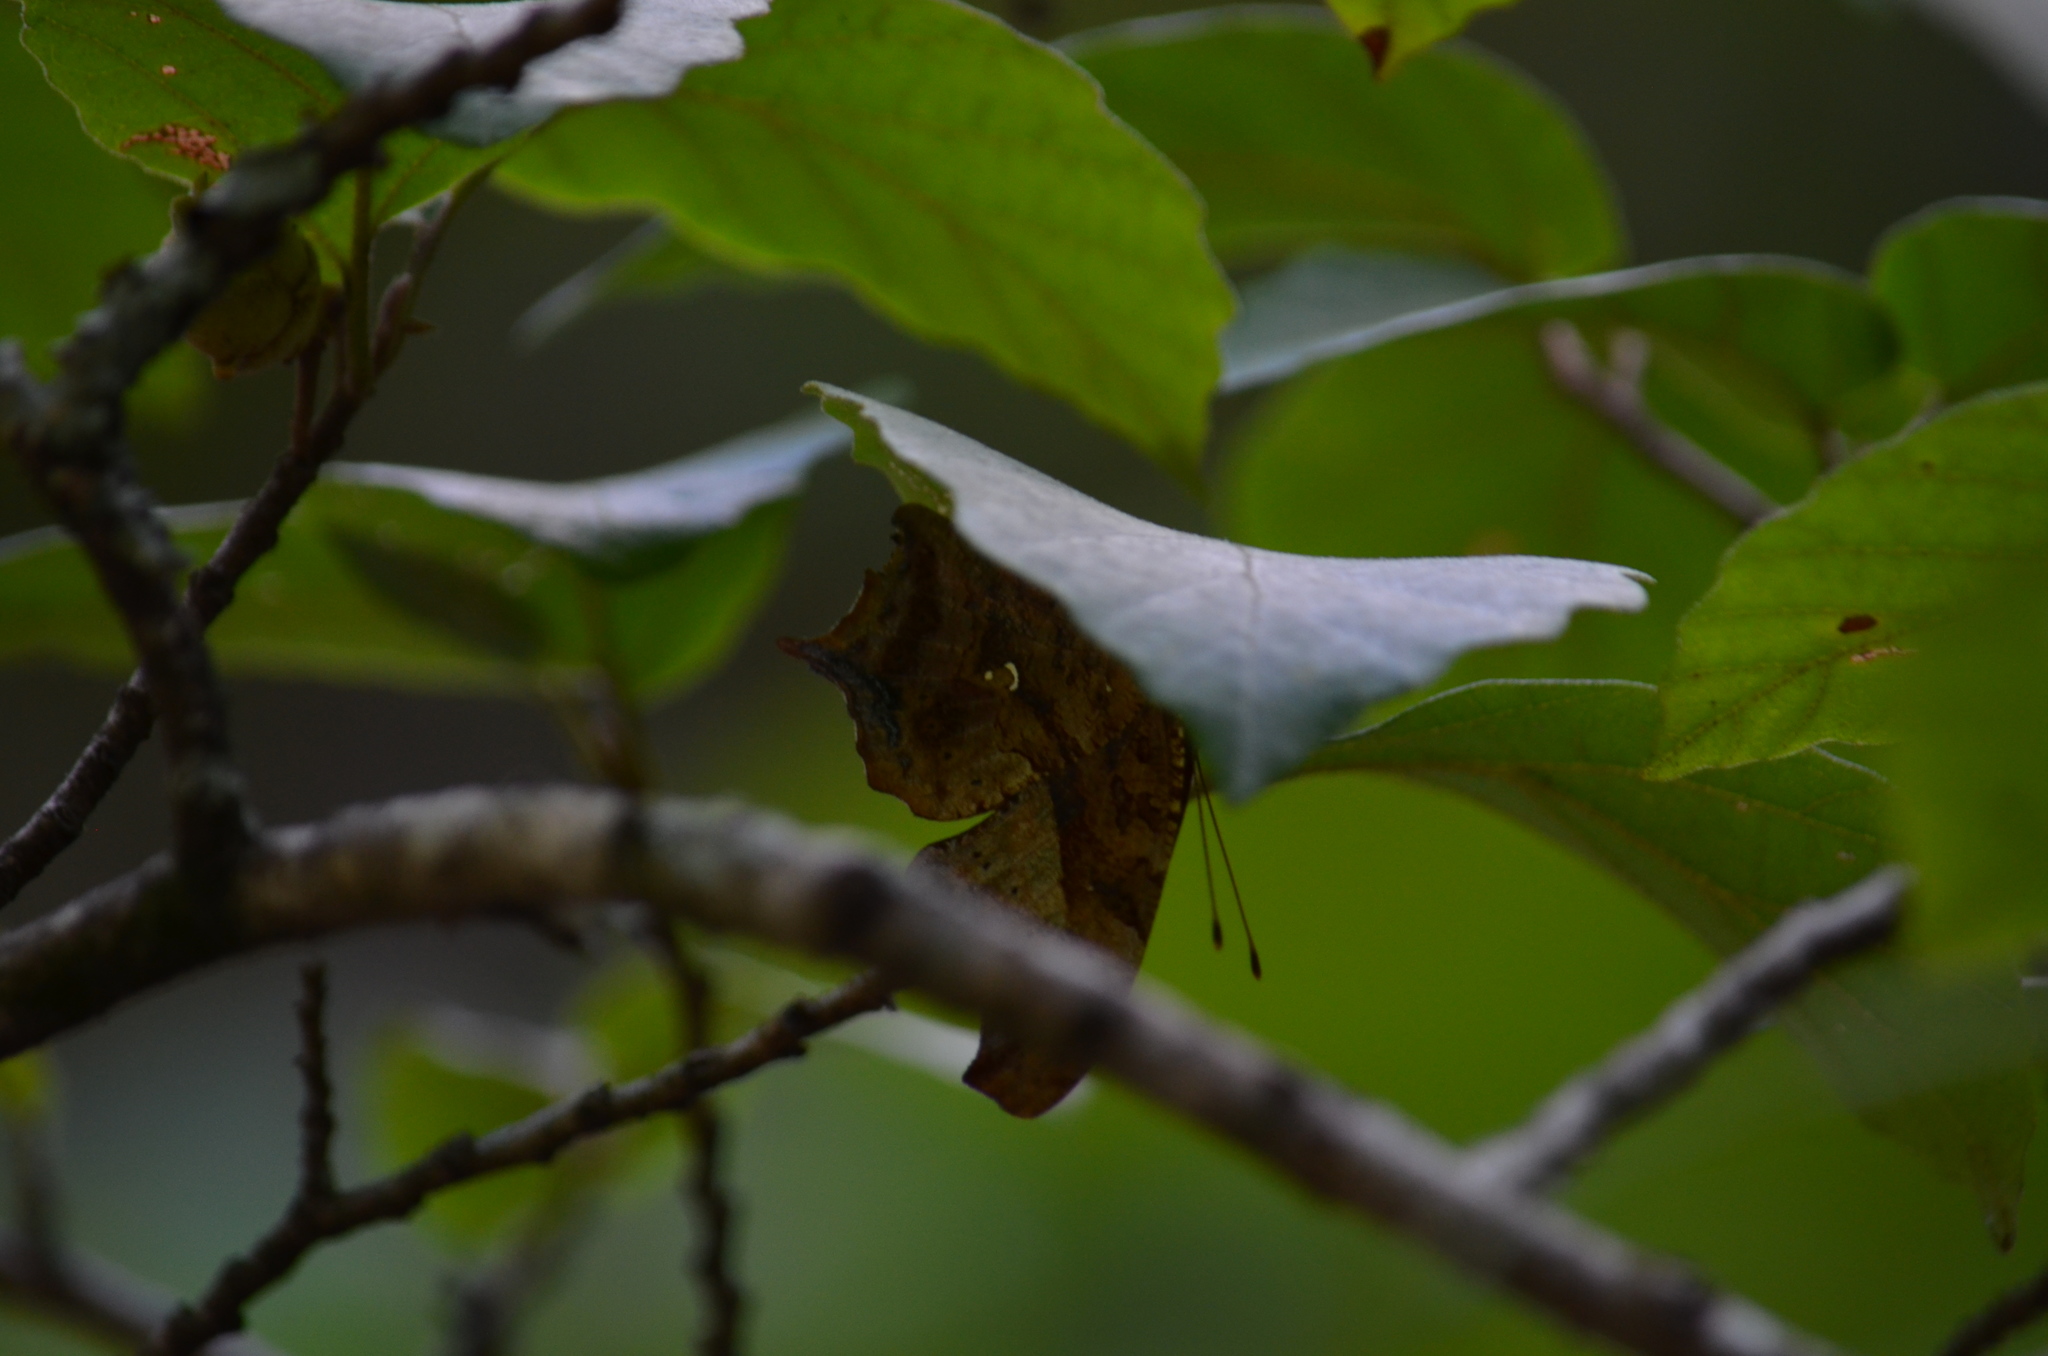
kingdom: Animalia
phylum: Arthropoda
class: Insecta
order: Lepidoptera
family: Nymphalidae
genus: Polygonia
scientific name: Polygonia interrogationis
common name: Question mark
